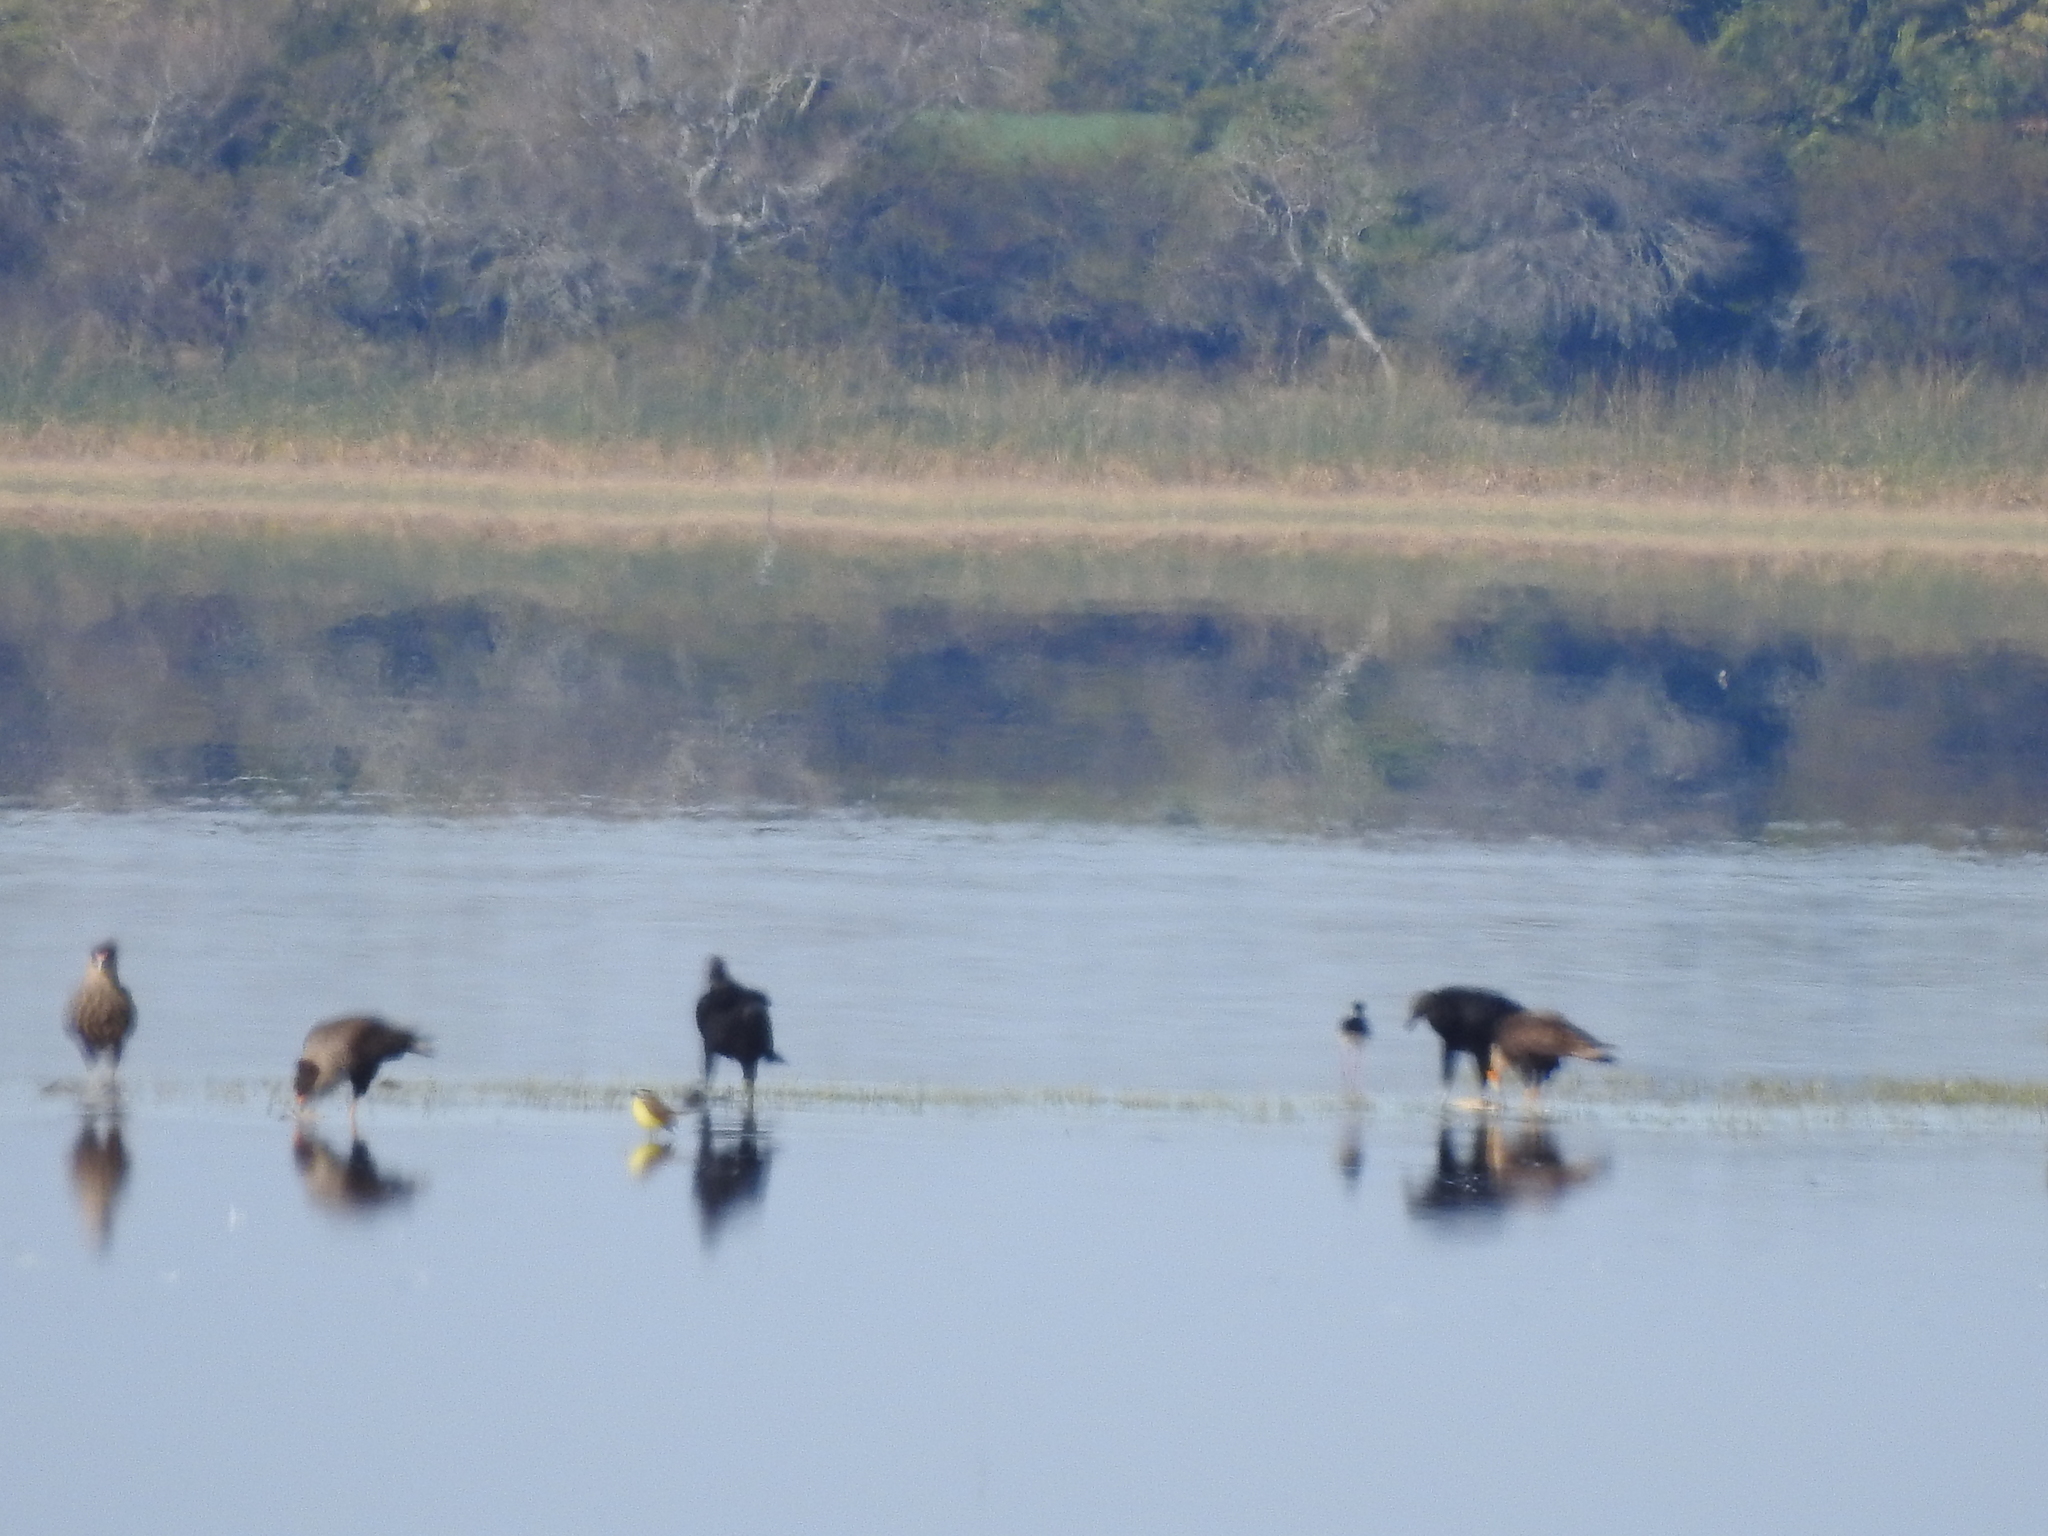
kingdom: Animalia
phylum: Chordata
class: Aves
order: Accipitriformes
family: Cathartidae
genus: Coragyps
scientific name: Coragyps atratus
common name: Black vulture
